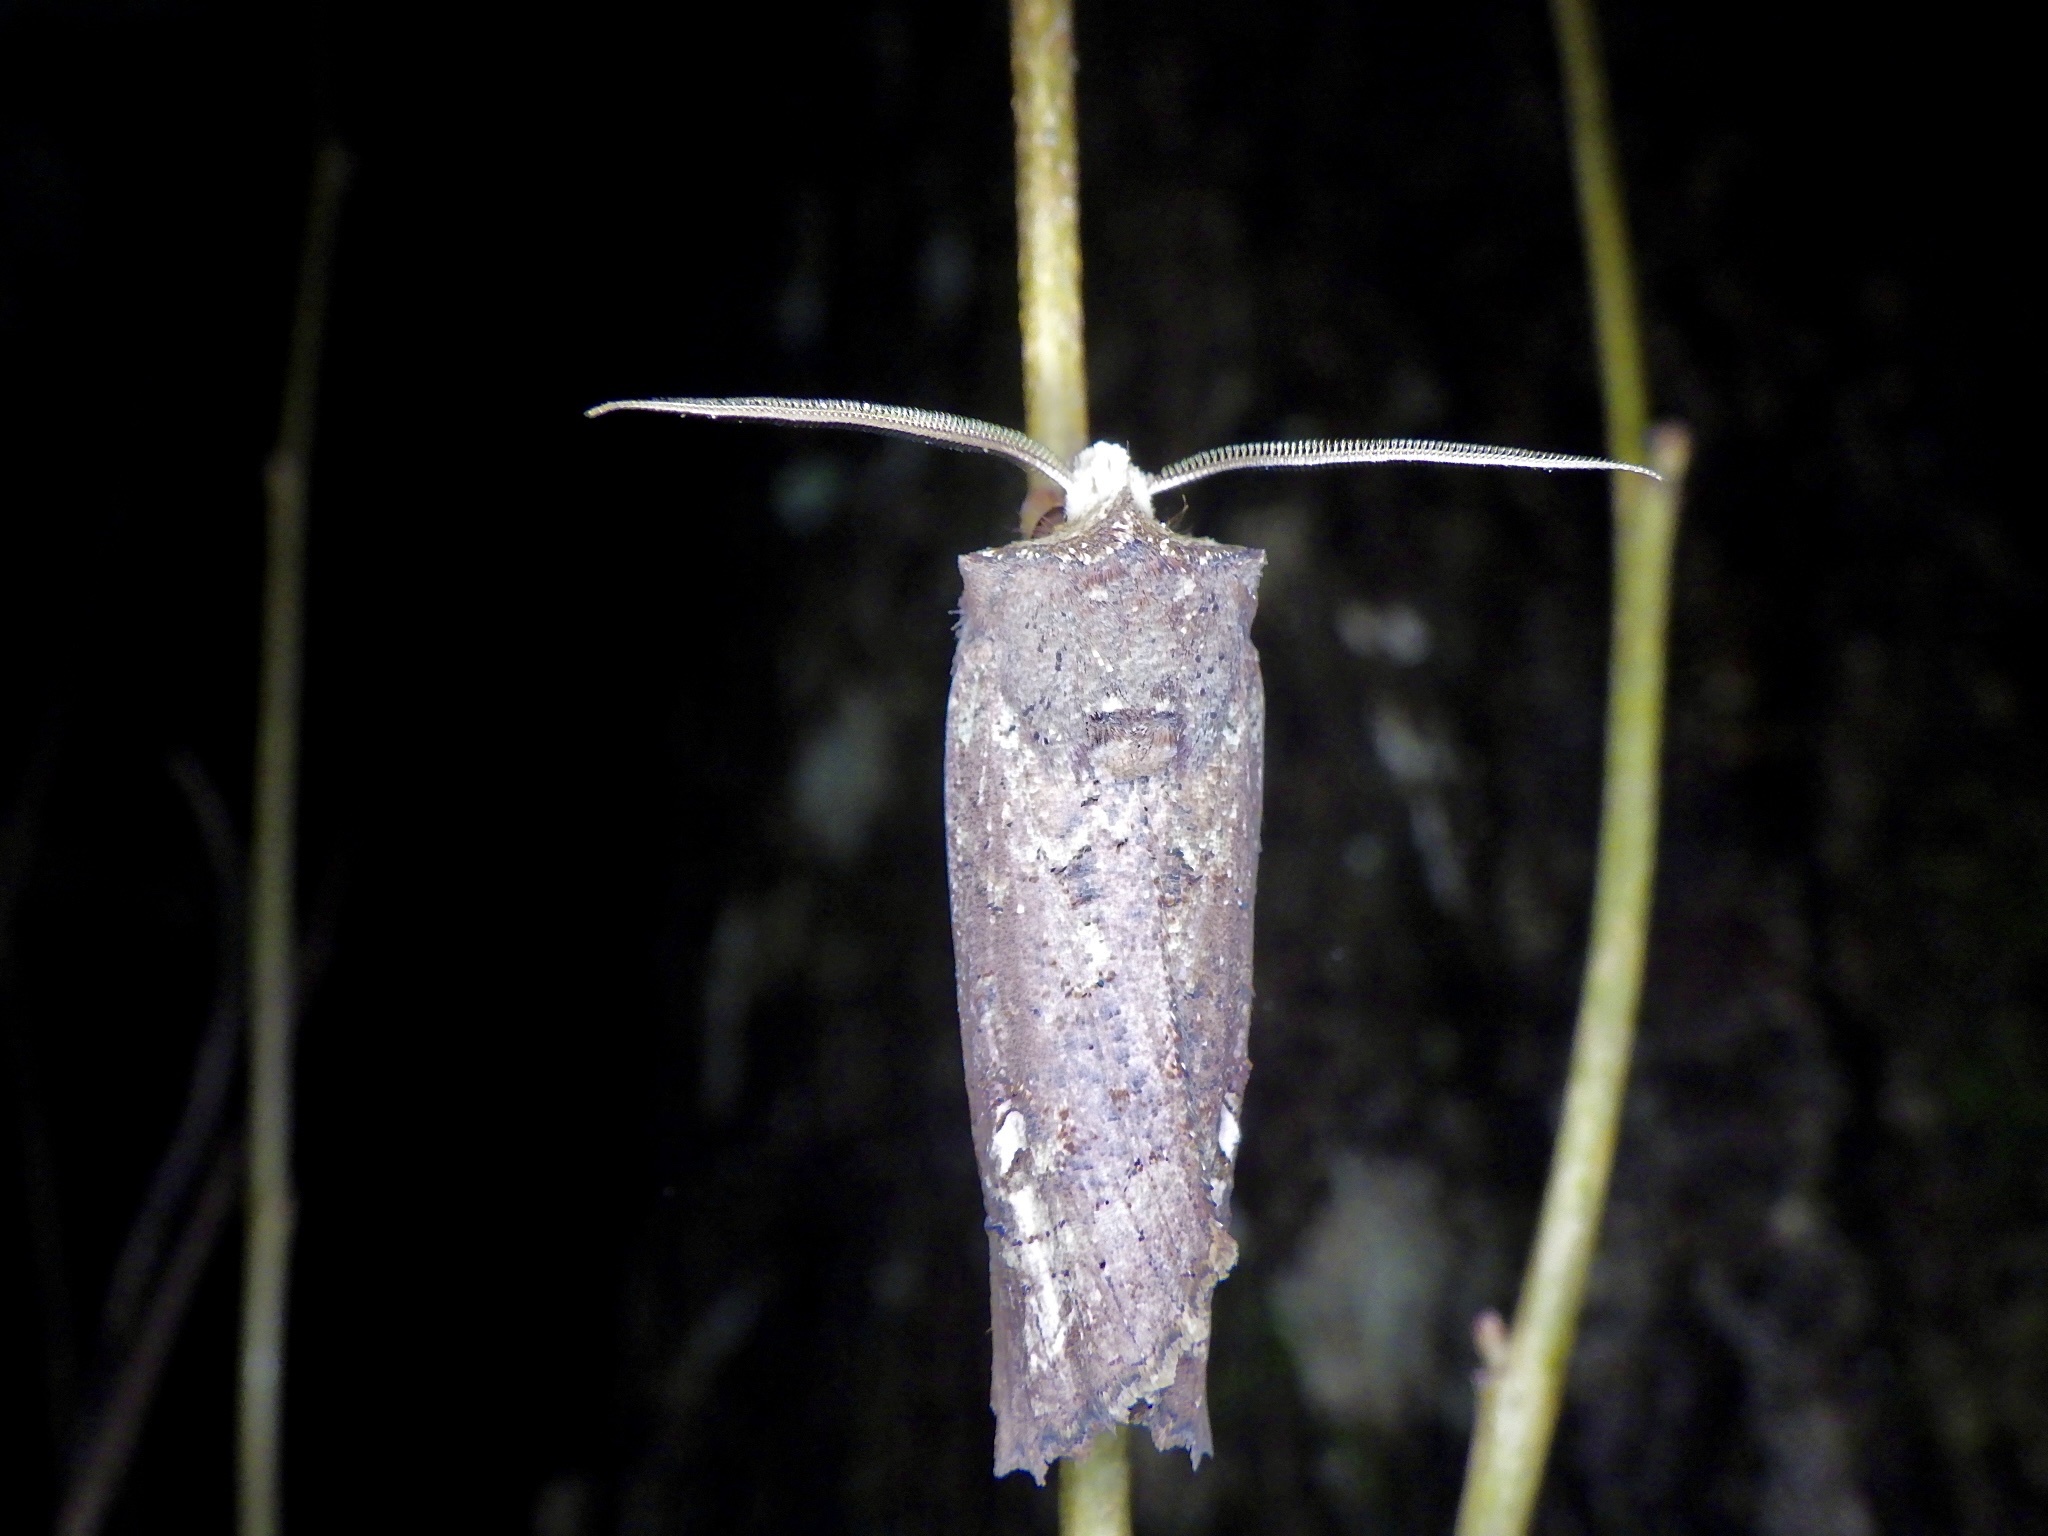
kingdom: Animalia
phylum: Arthropoda
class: Insecta
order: Lepidoptera
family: Noctuidae
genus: Xylena
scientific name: Xylena changi
